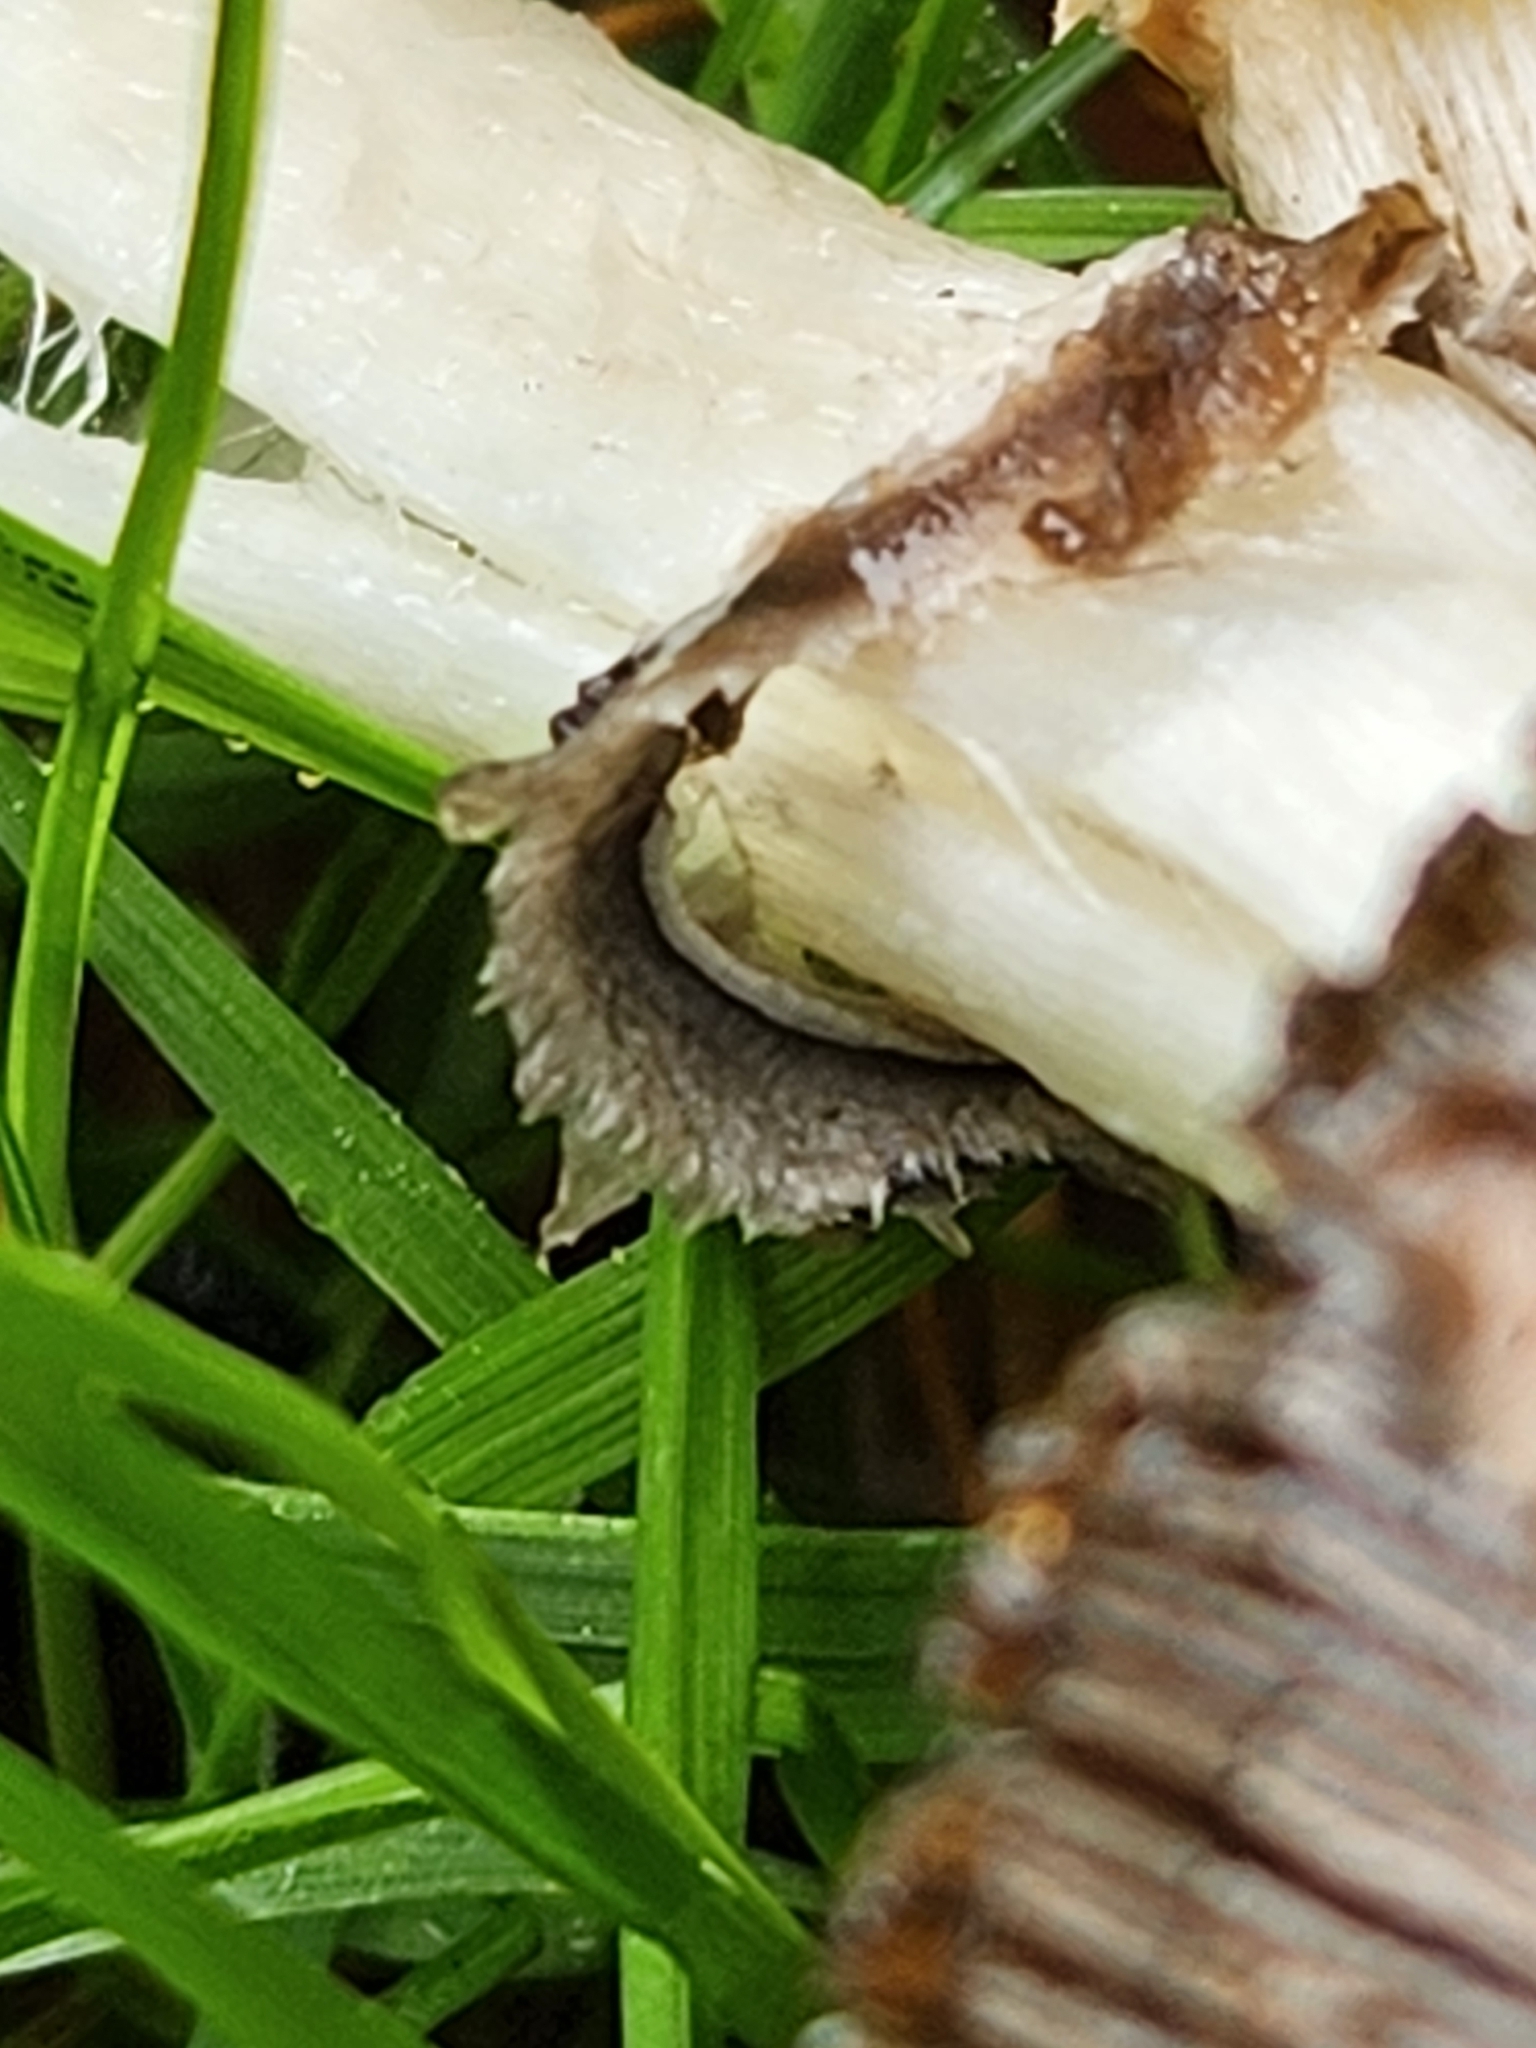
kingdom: Fungi
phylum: Basidiomycota
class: Agaricomycetes
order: Agaricales
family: Agaricaceae
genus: Coprinus
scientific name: Coprinus comatus
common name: Lawyer's wig
